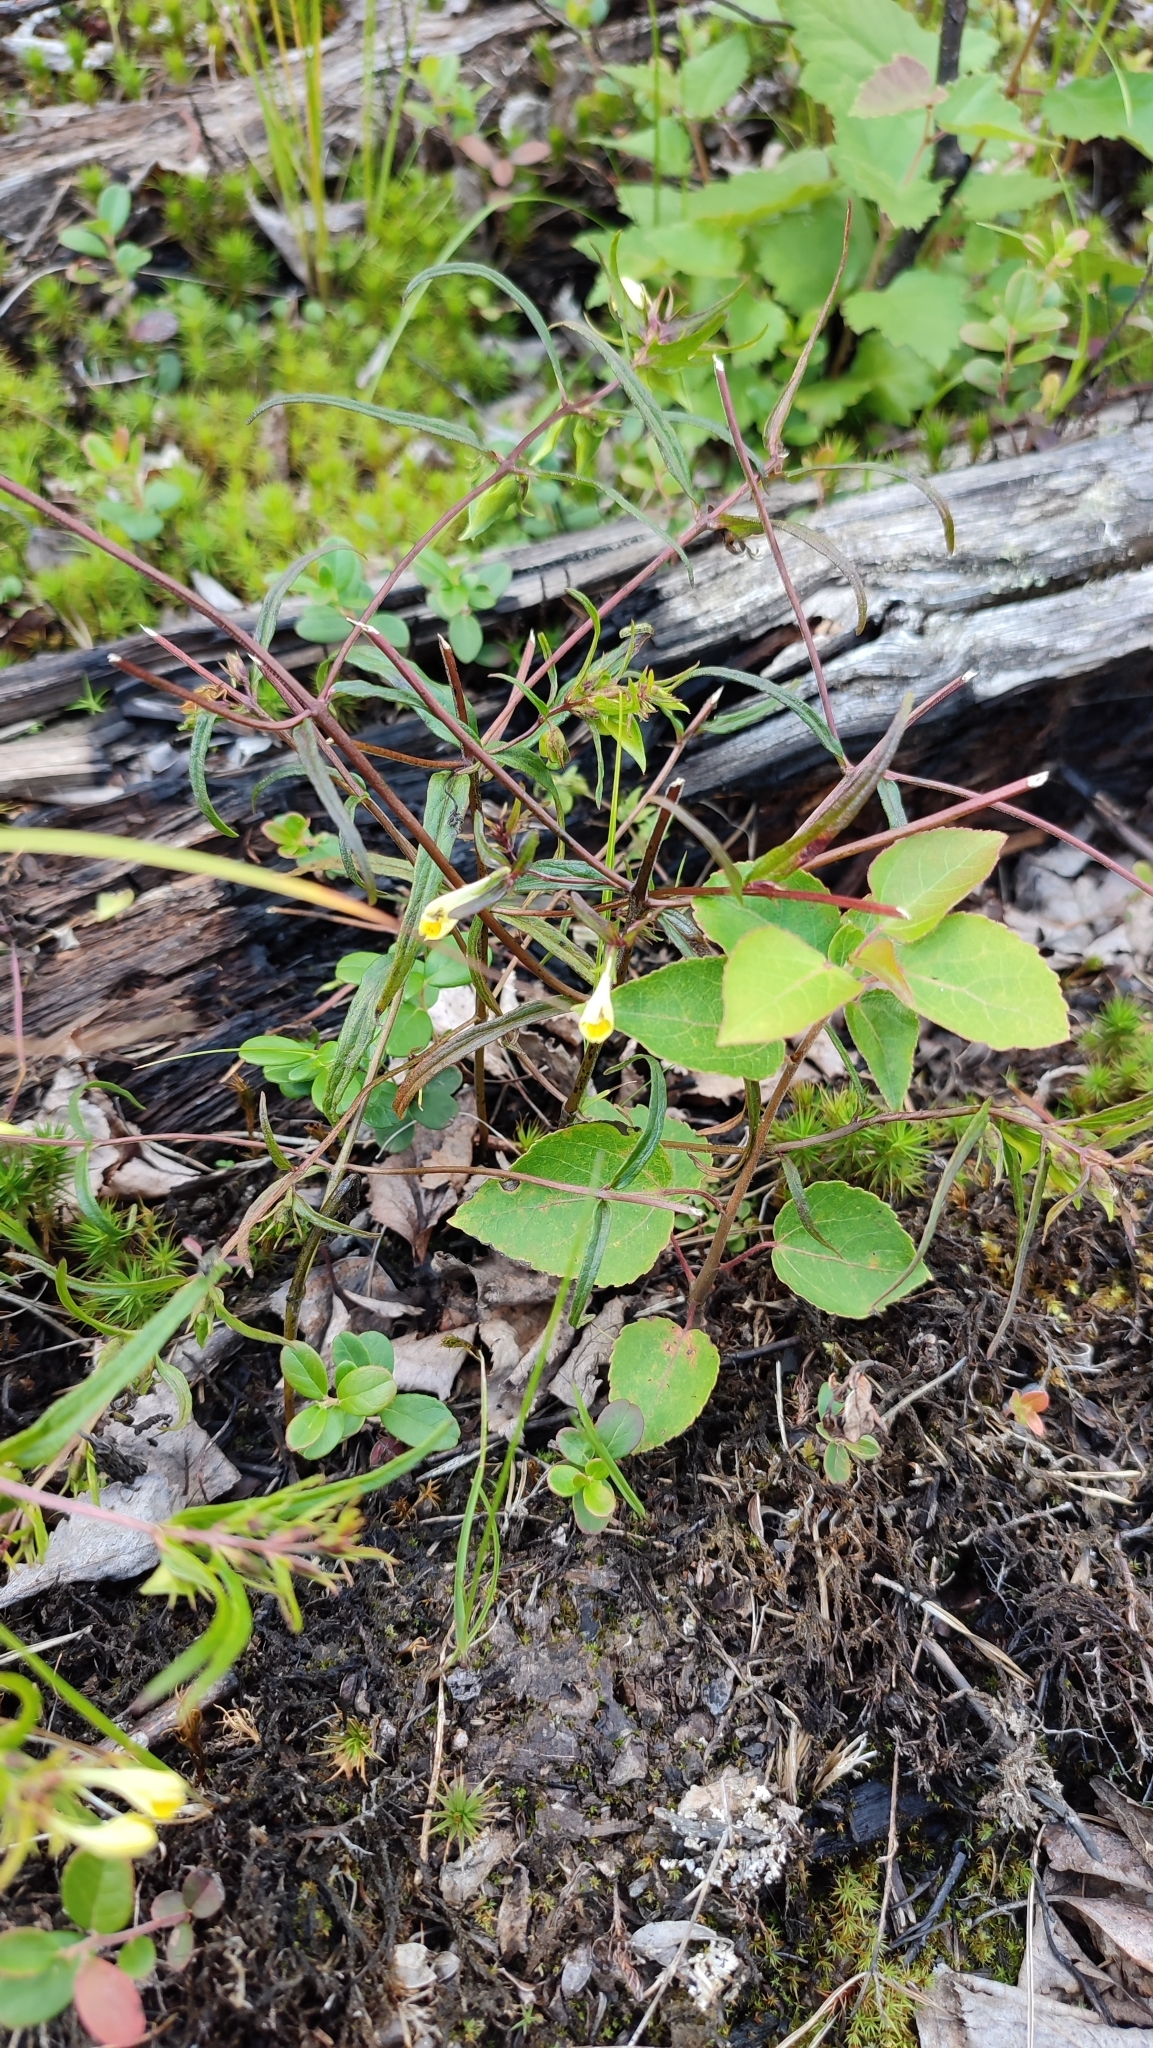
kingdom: Plantae
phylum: Tracheophyta
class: Magnoliopsida
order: Lamiales
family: Orobanchaceae
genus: Melampyrum
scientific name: Melampyrum pratense
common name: Common cow-wheat
